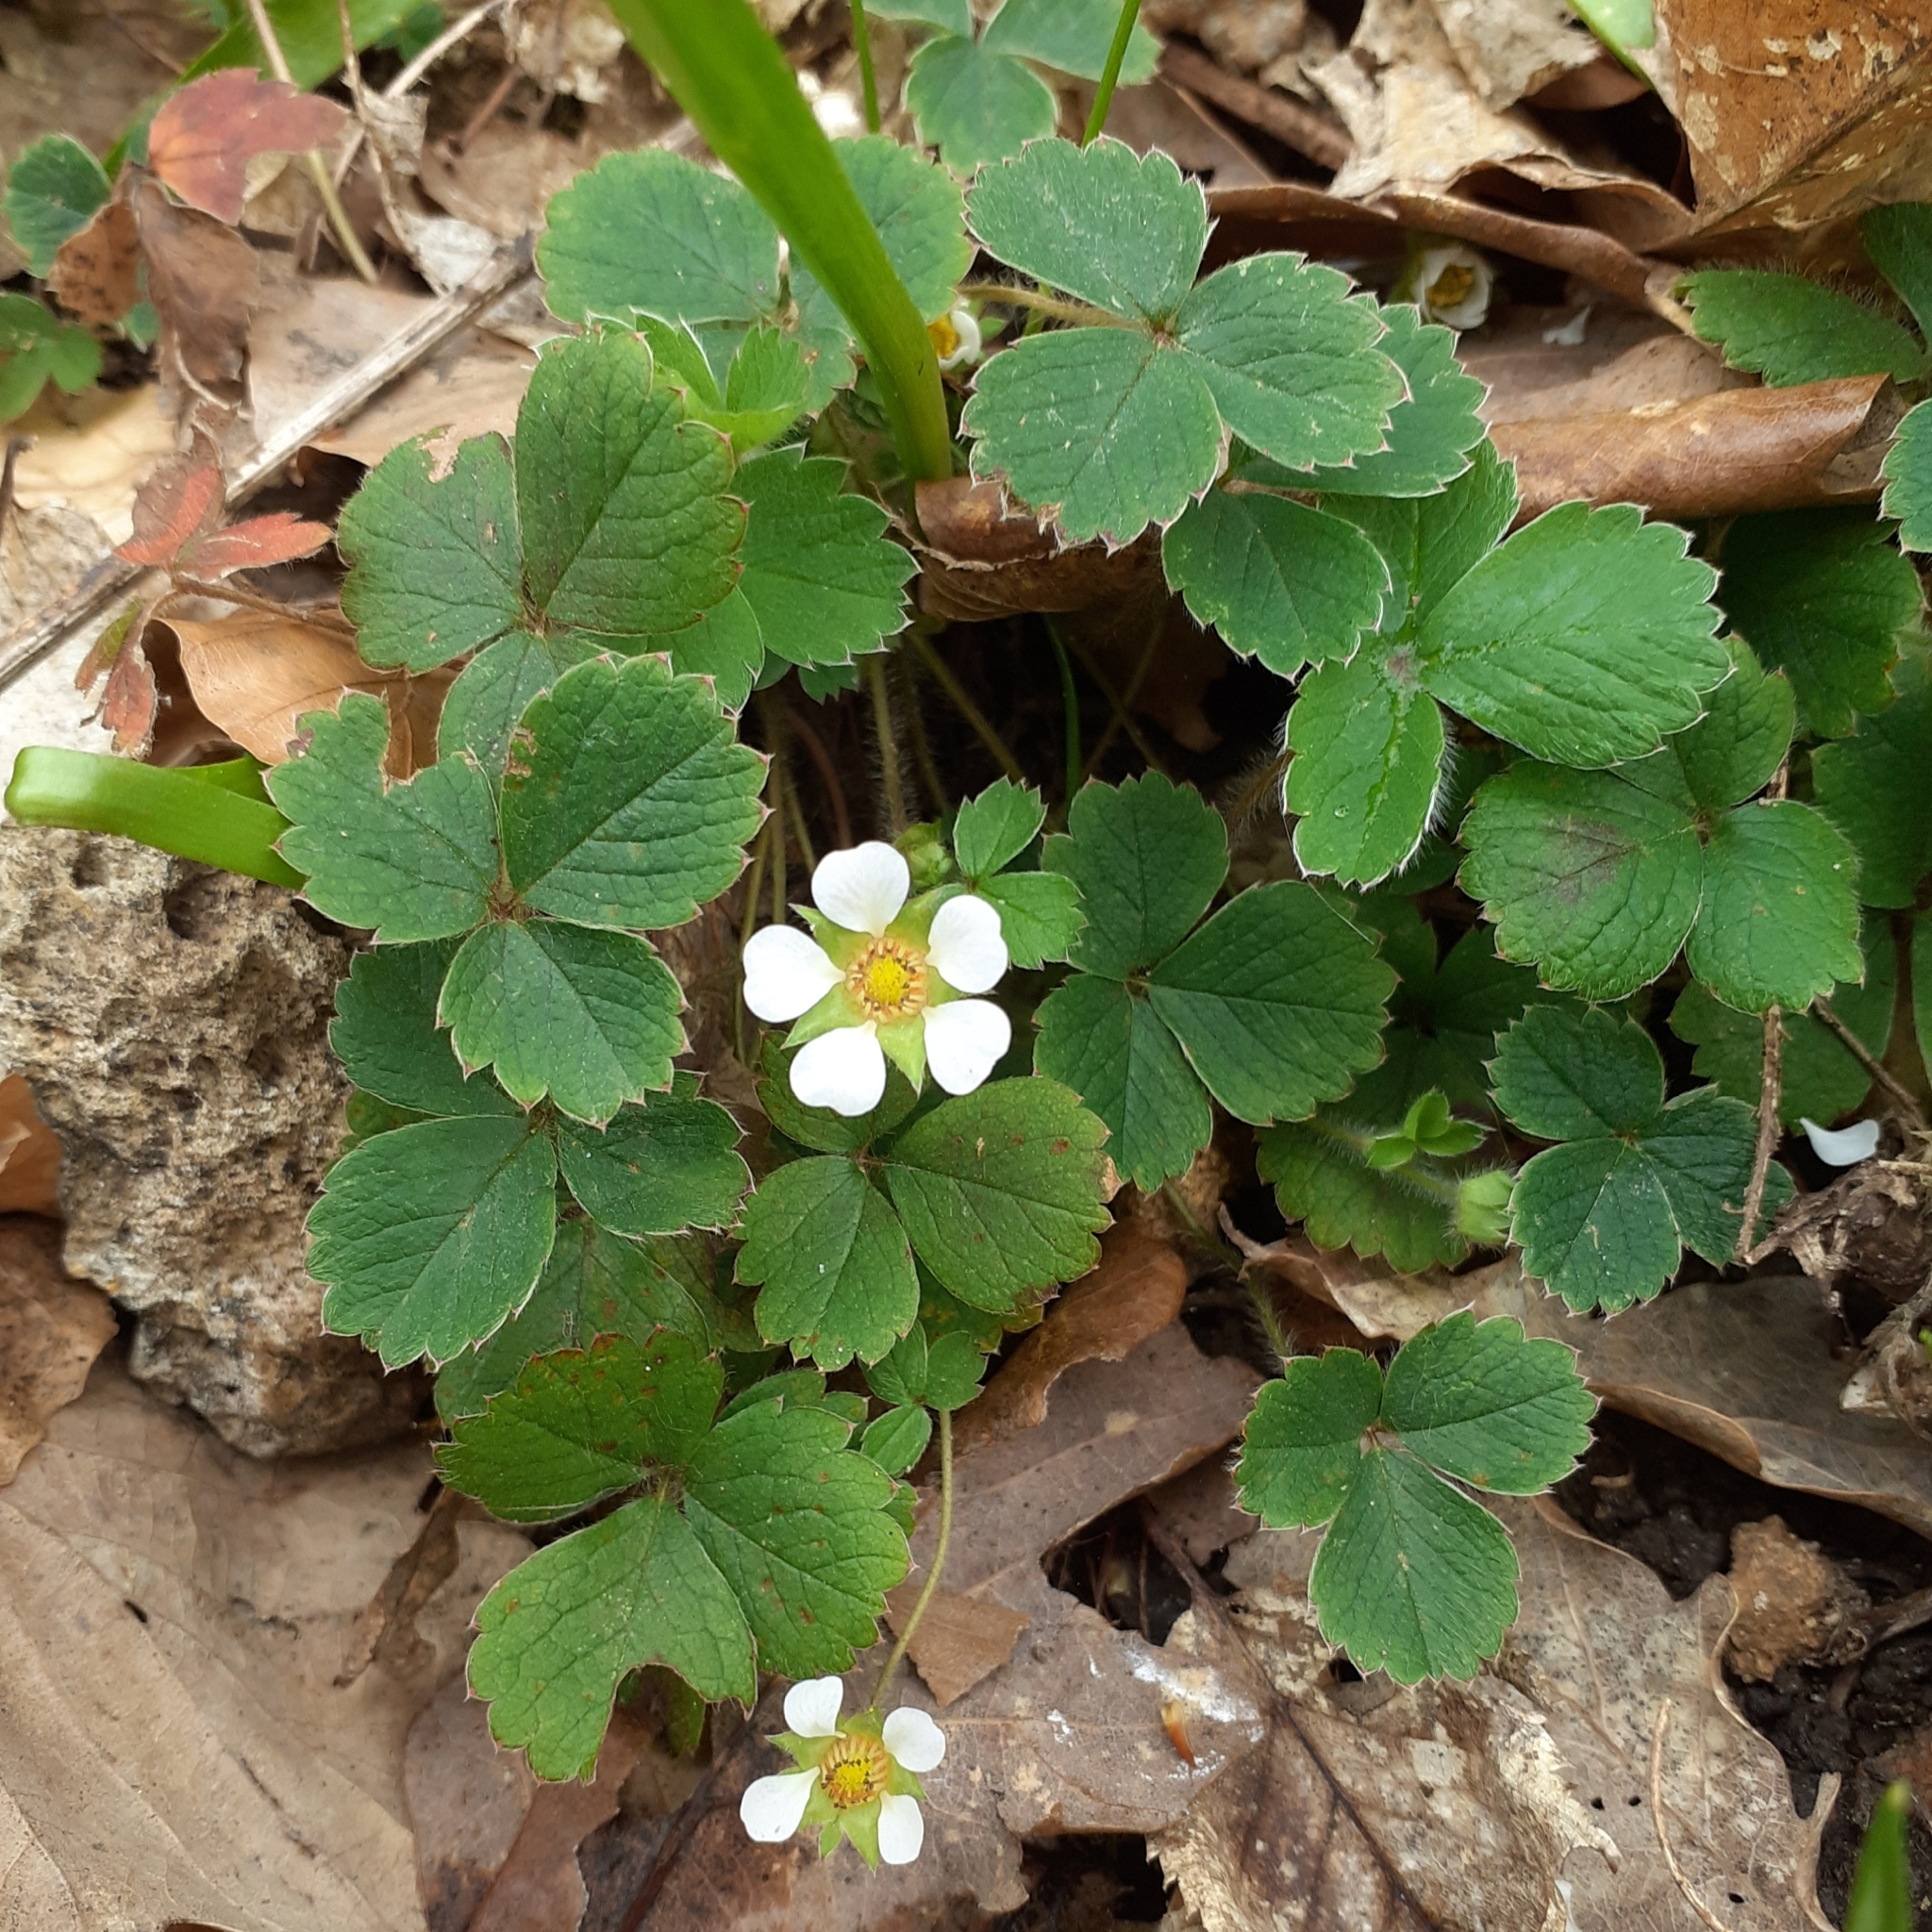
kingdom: Plantae
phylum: Tracheophyta
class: Magnoliopsida
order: Rosales
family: Rosaceae
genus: Potentilla
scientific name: Potentilla sterilis
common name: Barren strawberry
